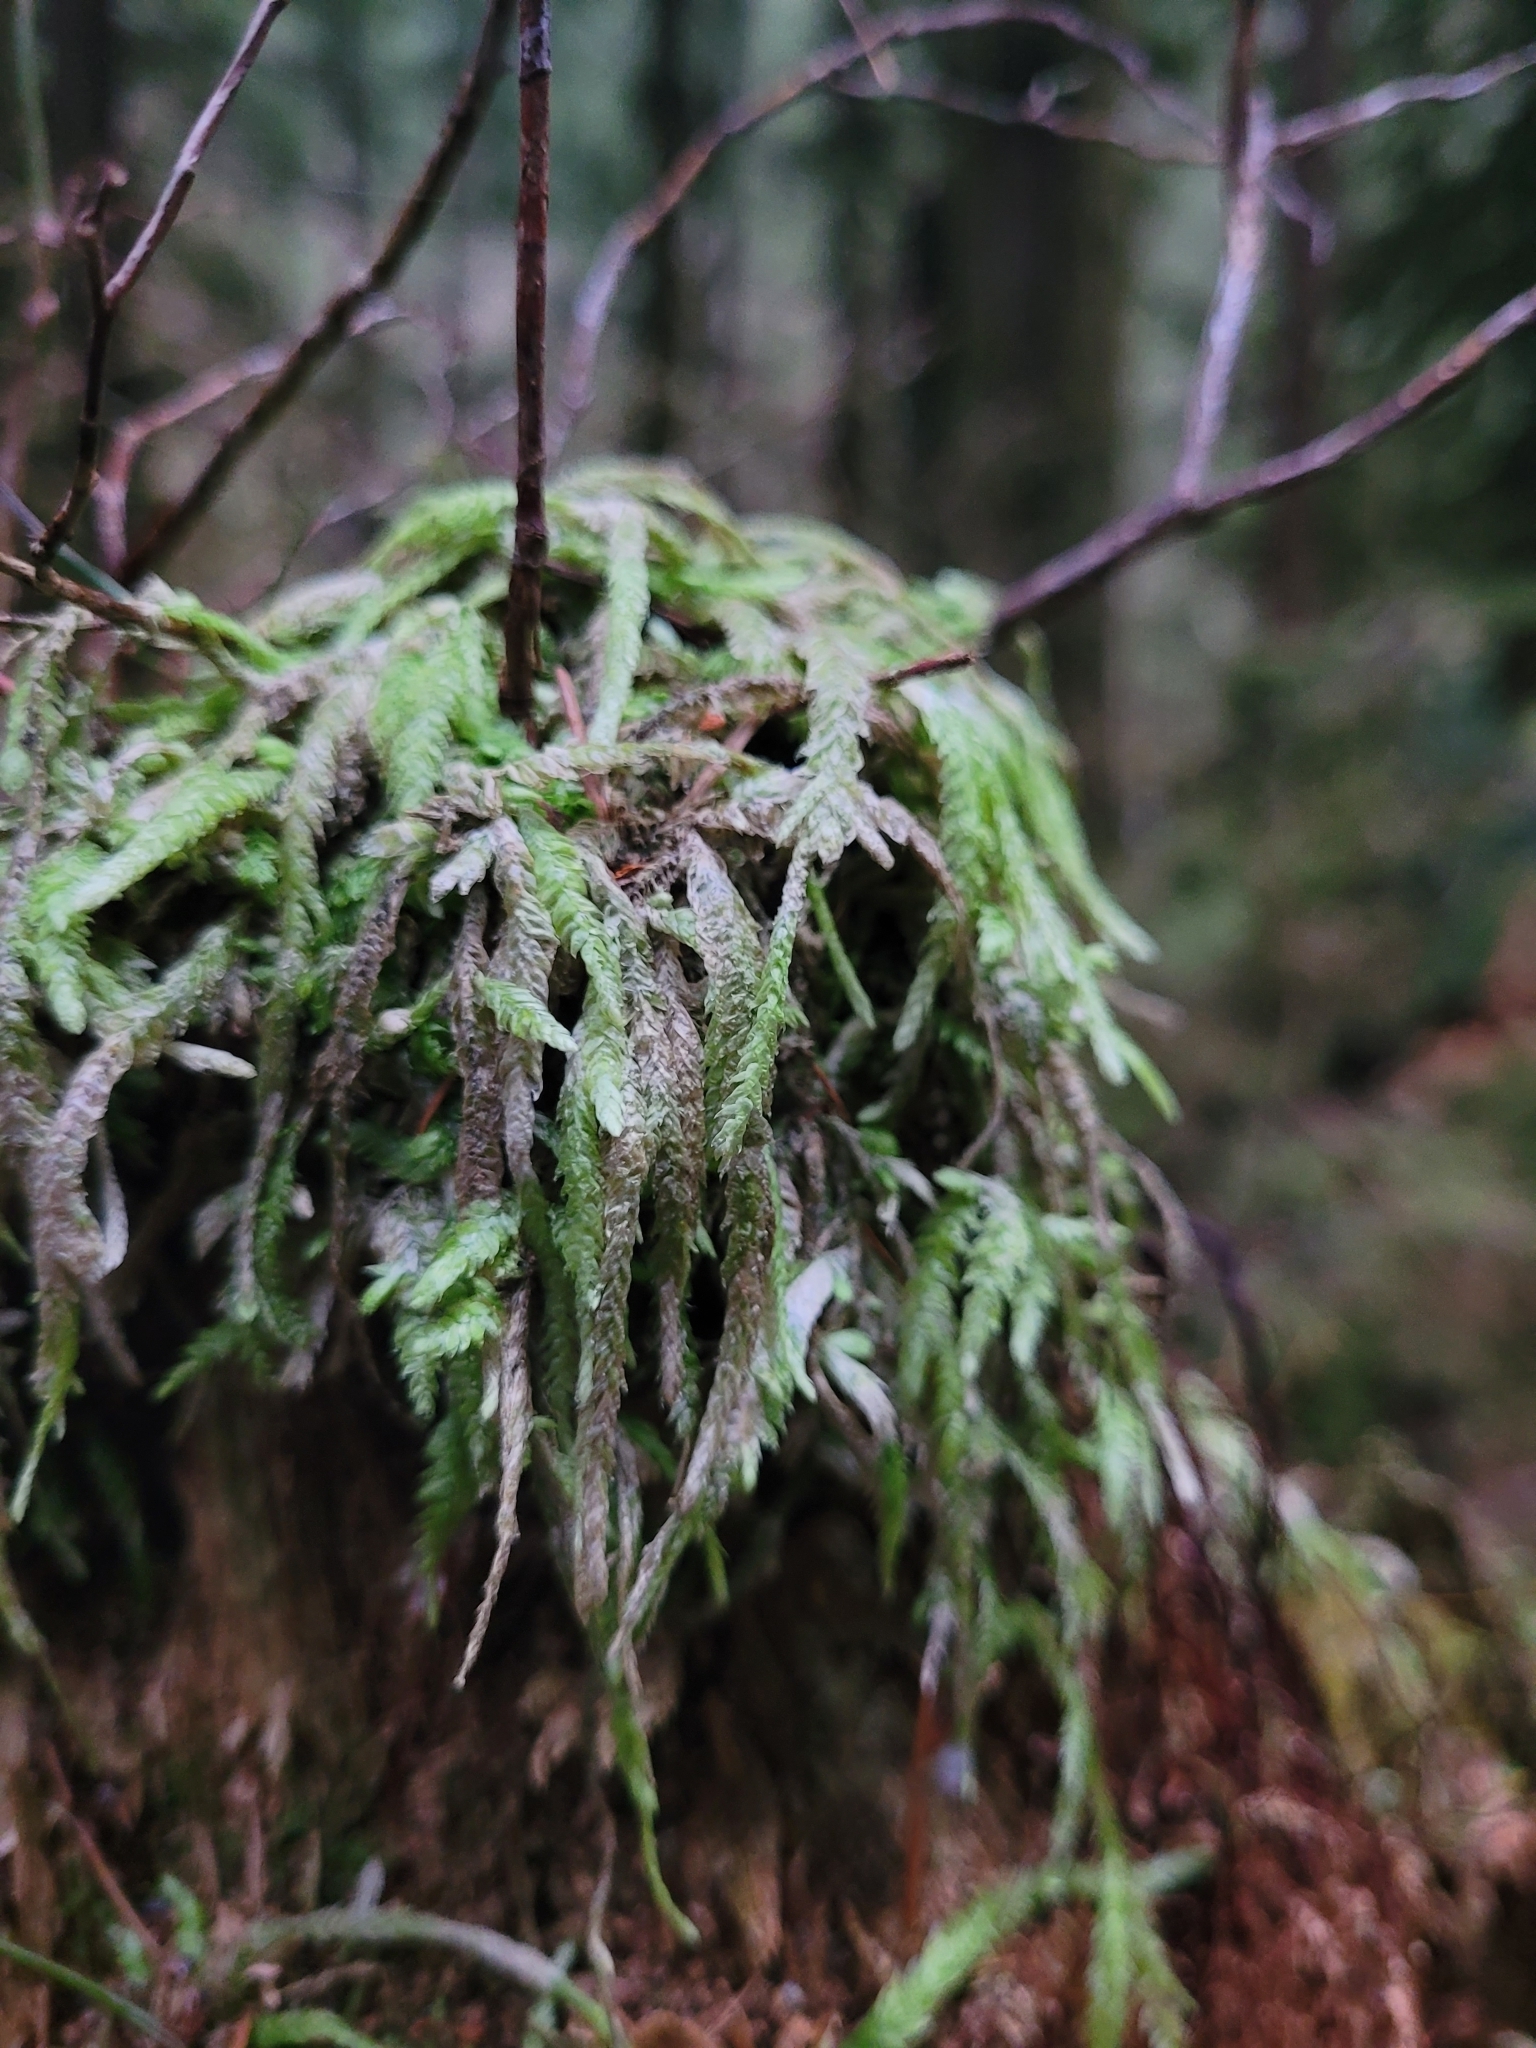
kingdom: Plantae
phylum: Bryophyta
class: Bryopsida
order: Hypnales
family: Plagiotheciaceae
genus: Plagiothecium
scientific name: Plagiothecium undulatum
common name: Waved silk-moss
